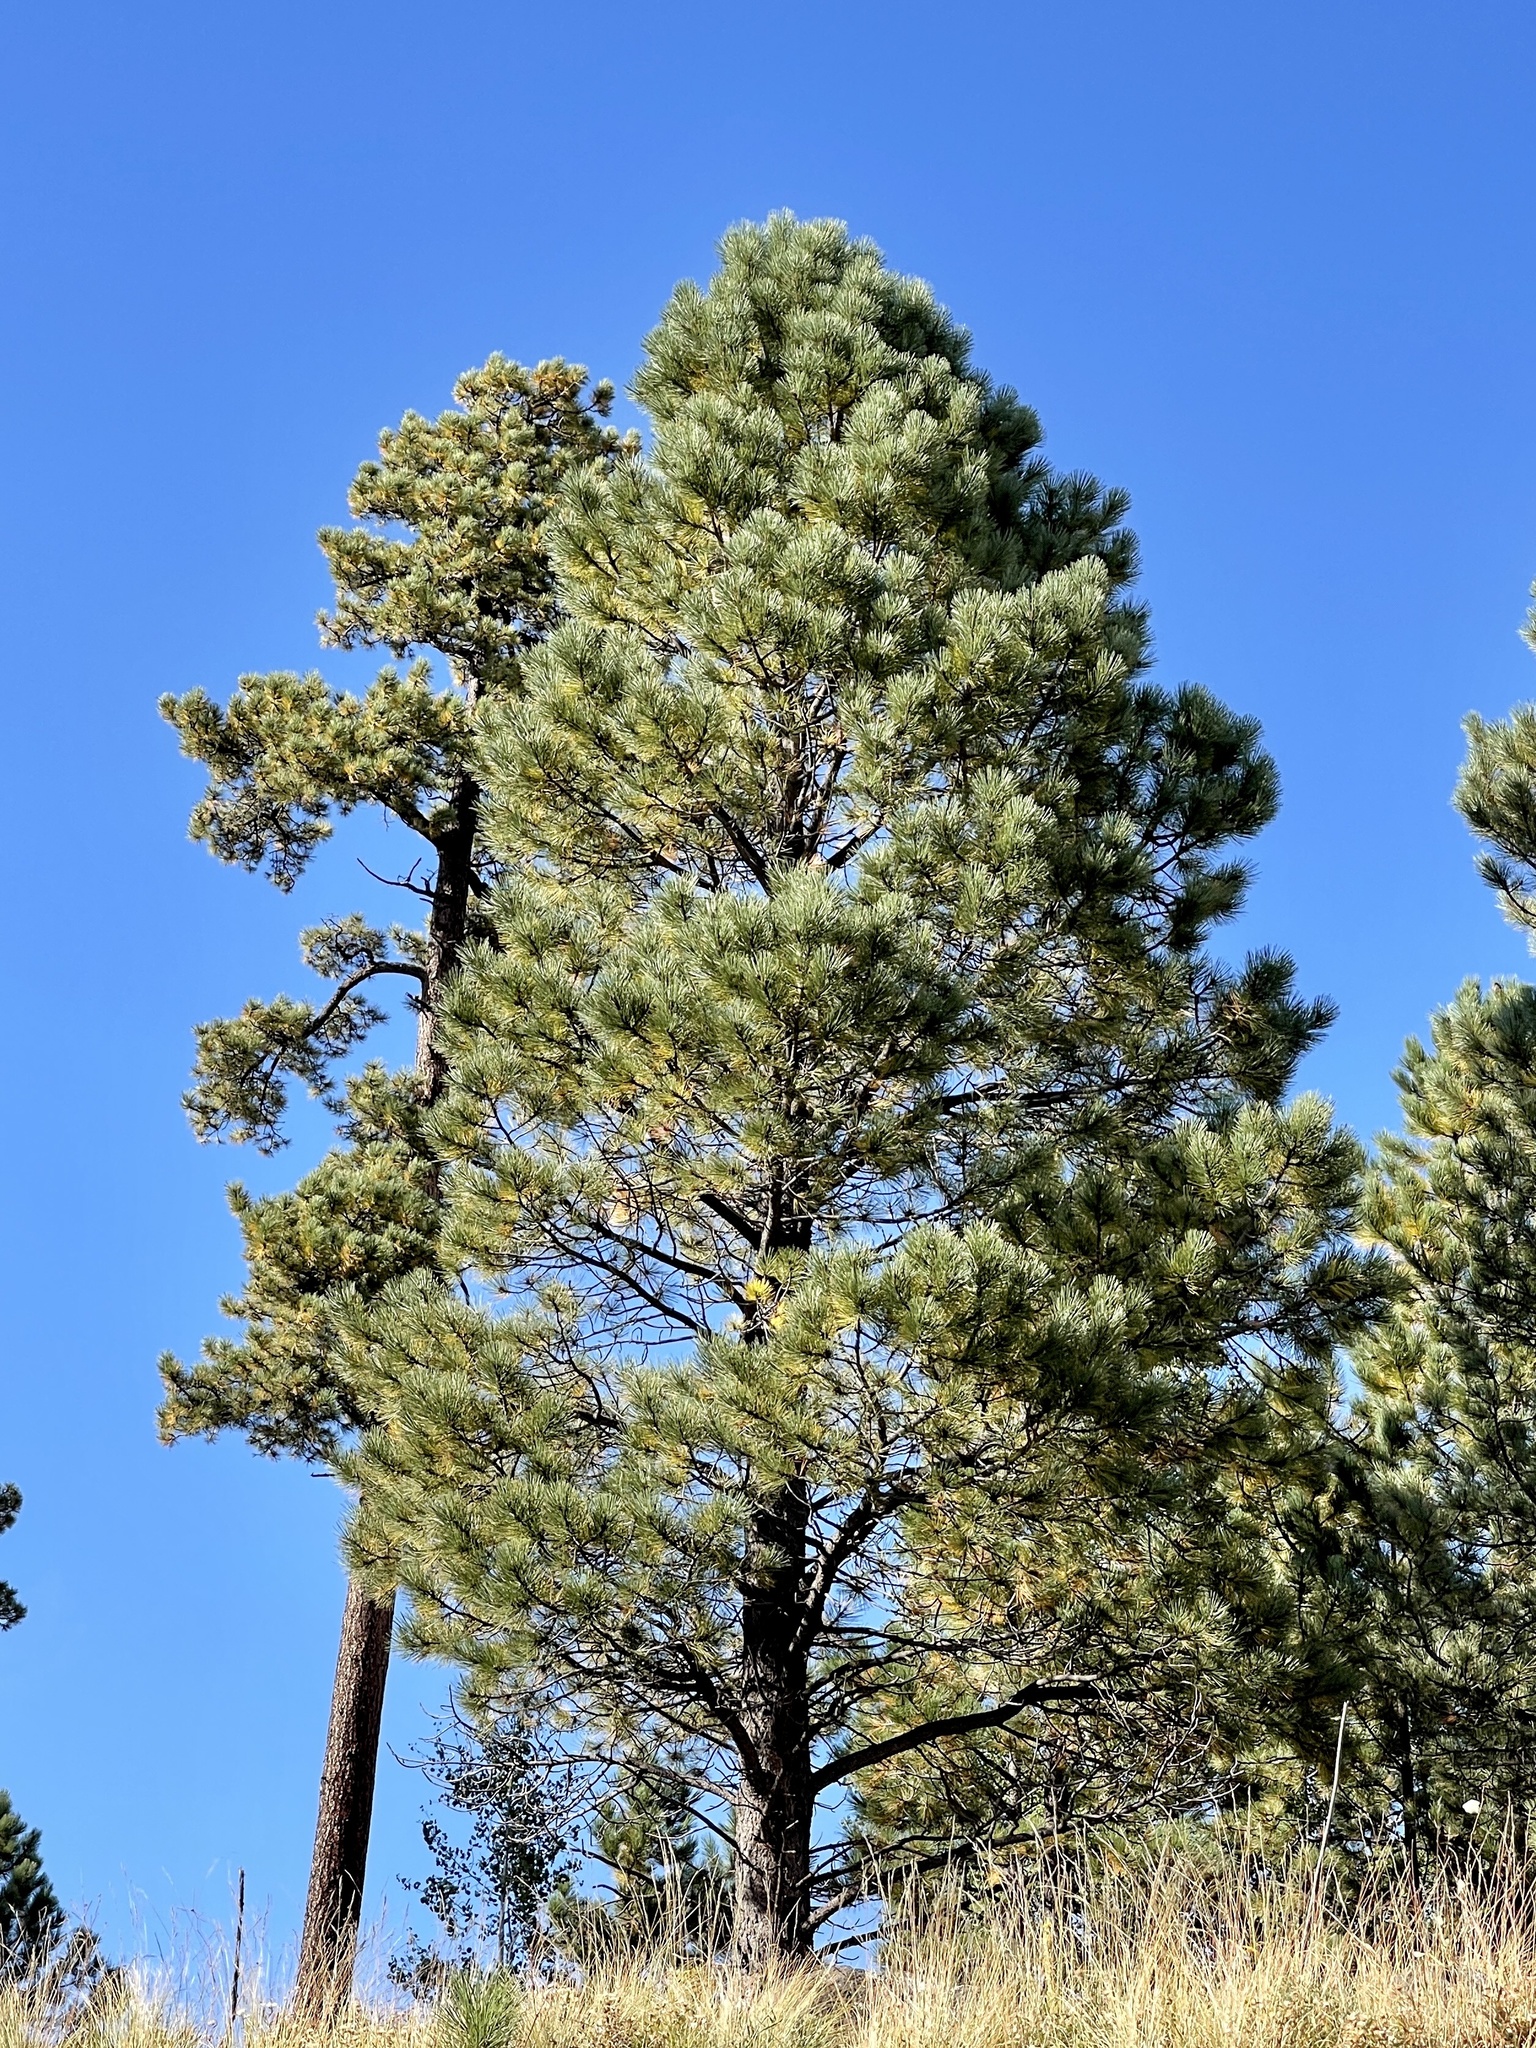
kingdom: Plantae
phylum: Tracheophyta
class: Pinopsida
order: Pinales
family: Pinaceae
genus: Pinus
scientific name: Pinus ponderosa
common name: Western yellow-pine
